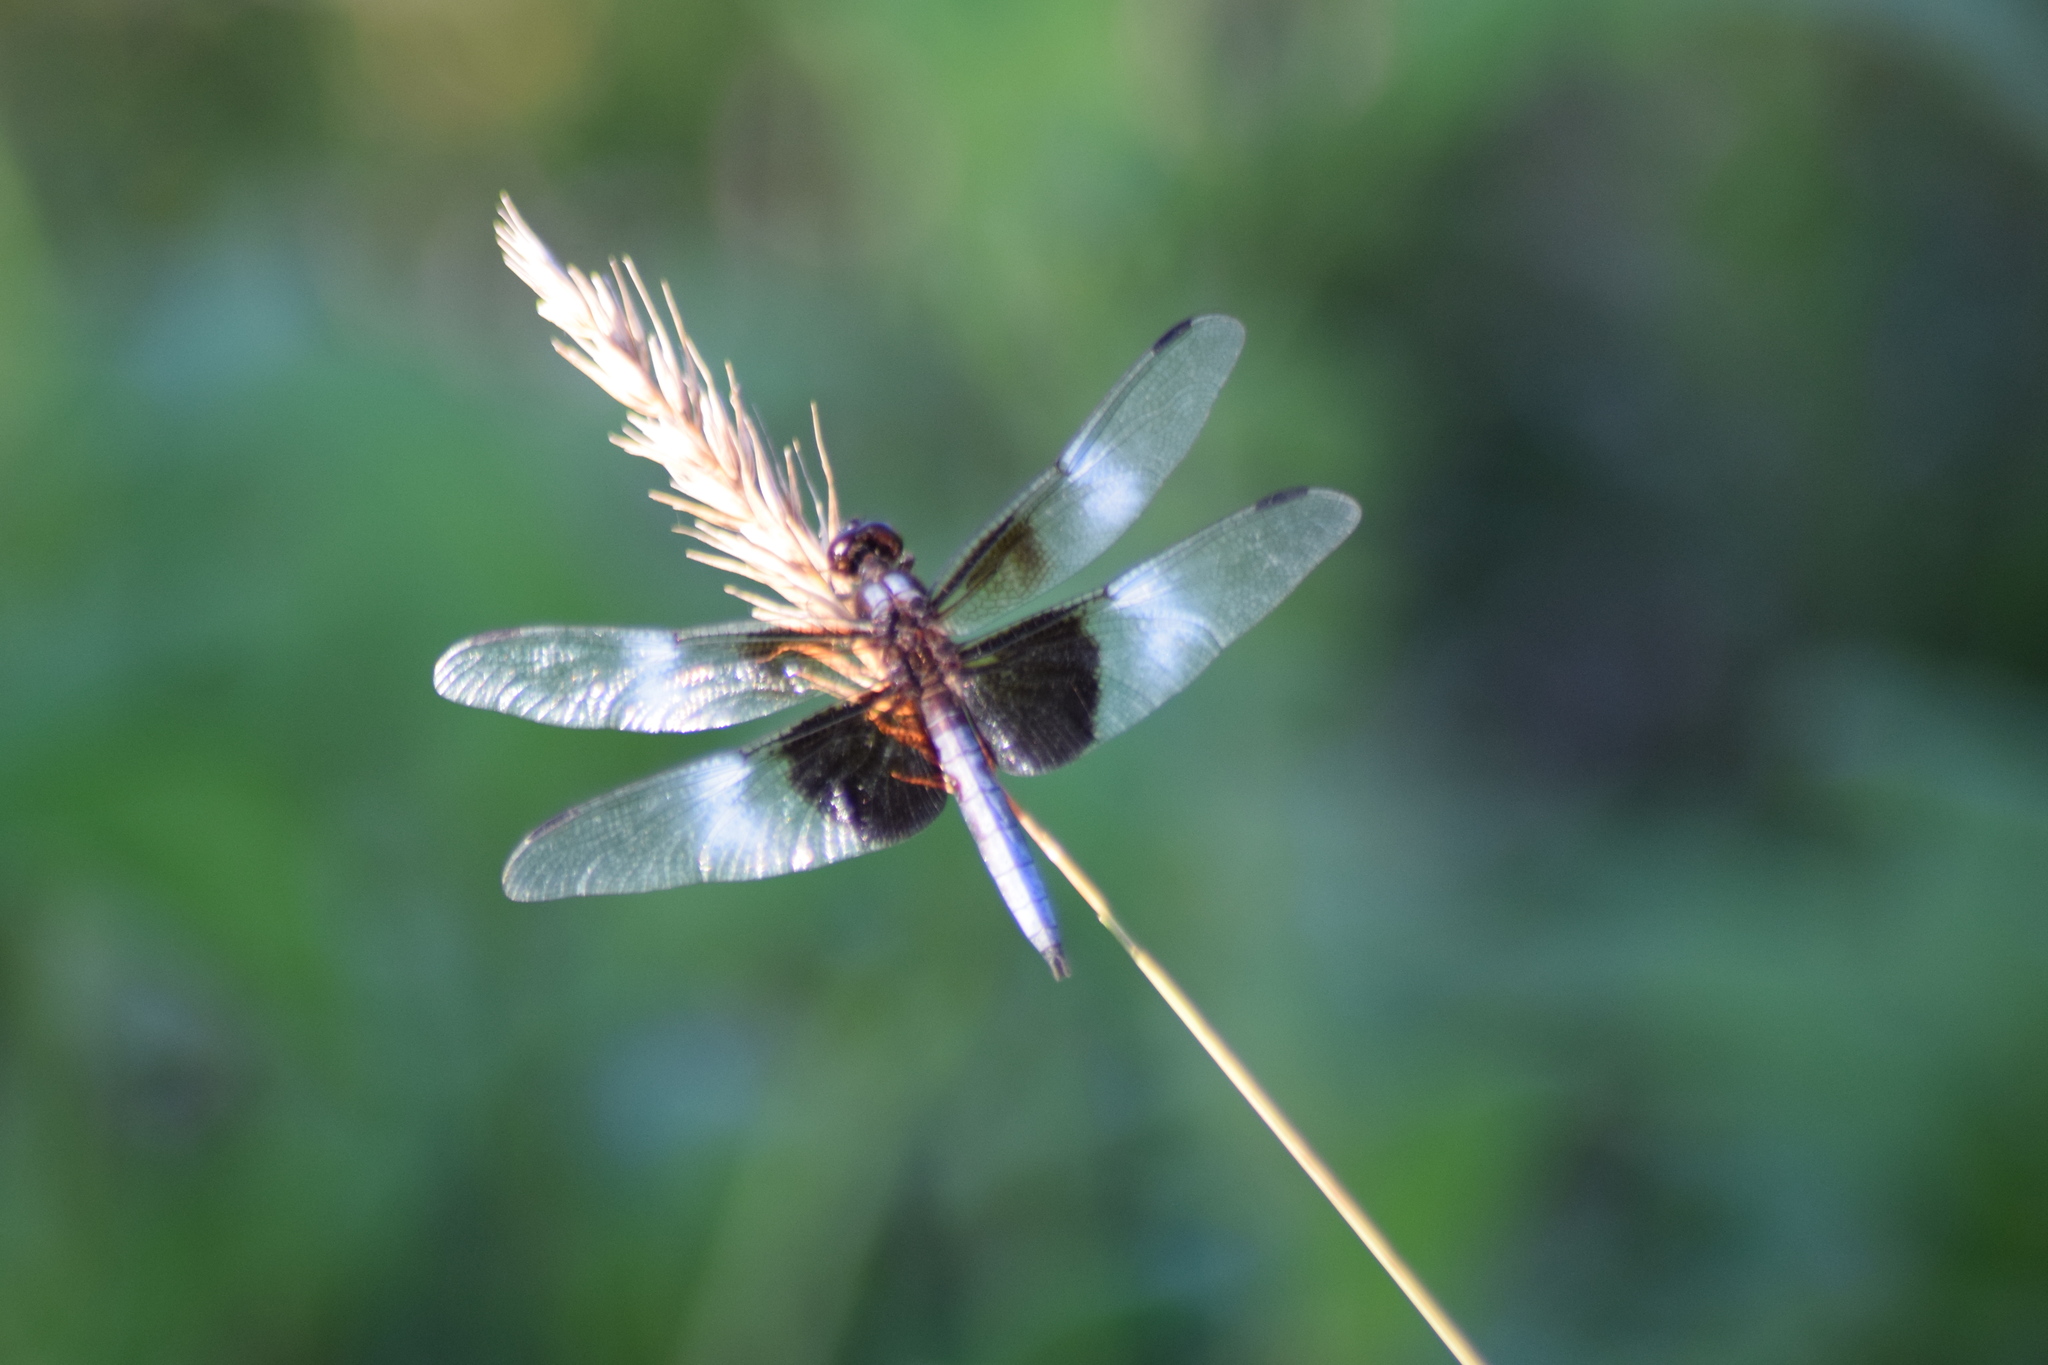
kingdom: Animalia
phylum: Arthropoda
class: Insecta
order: Odonata
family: Libellulidae
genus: Libellula
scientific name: Libellula luctuosa
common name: Widow skimmer
